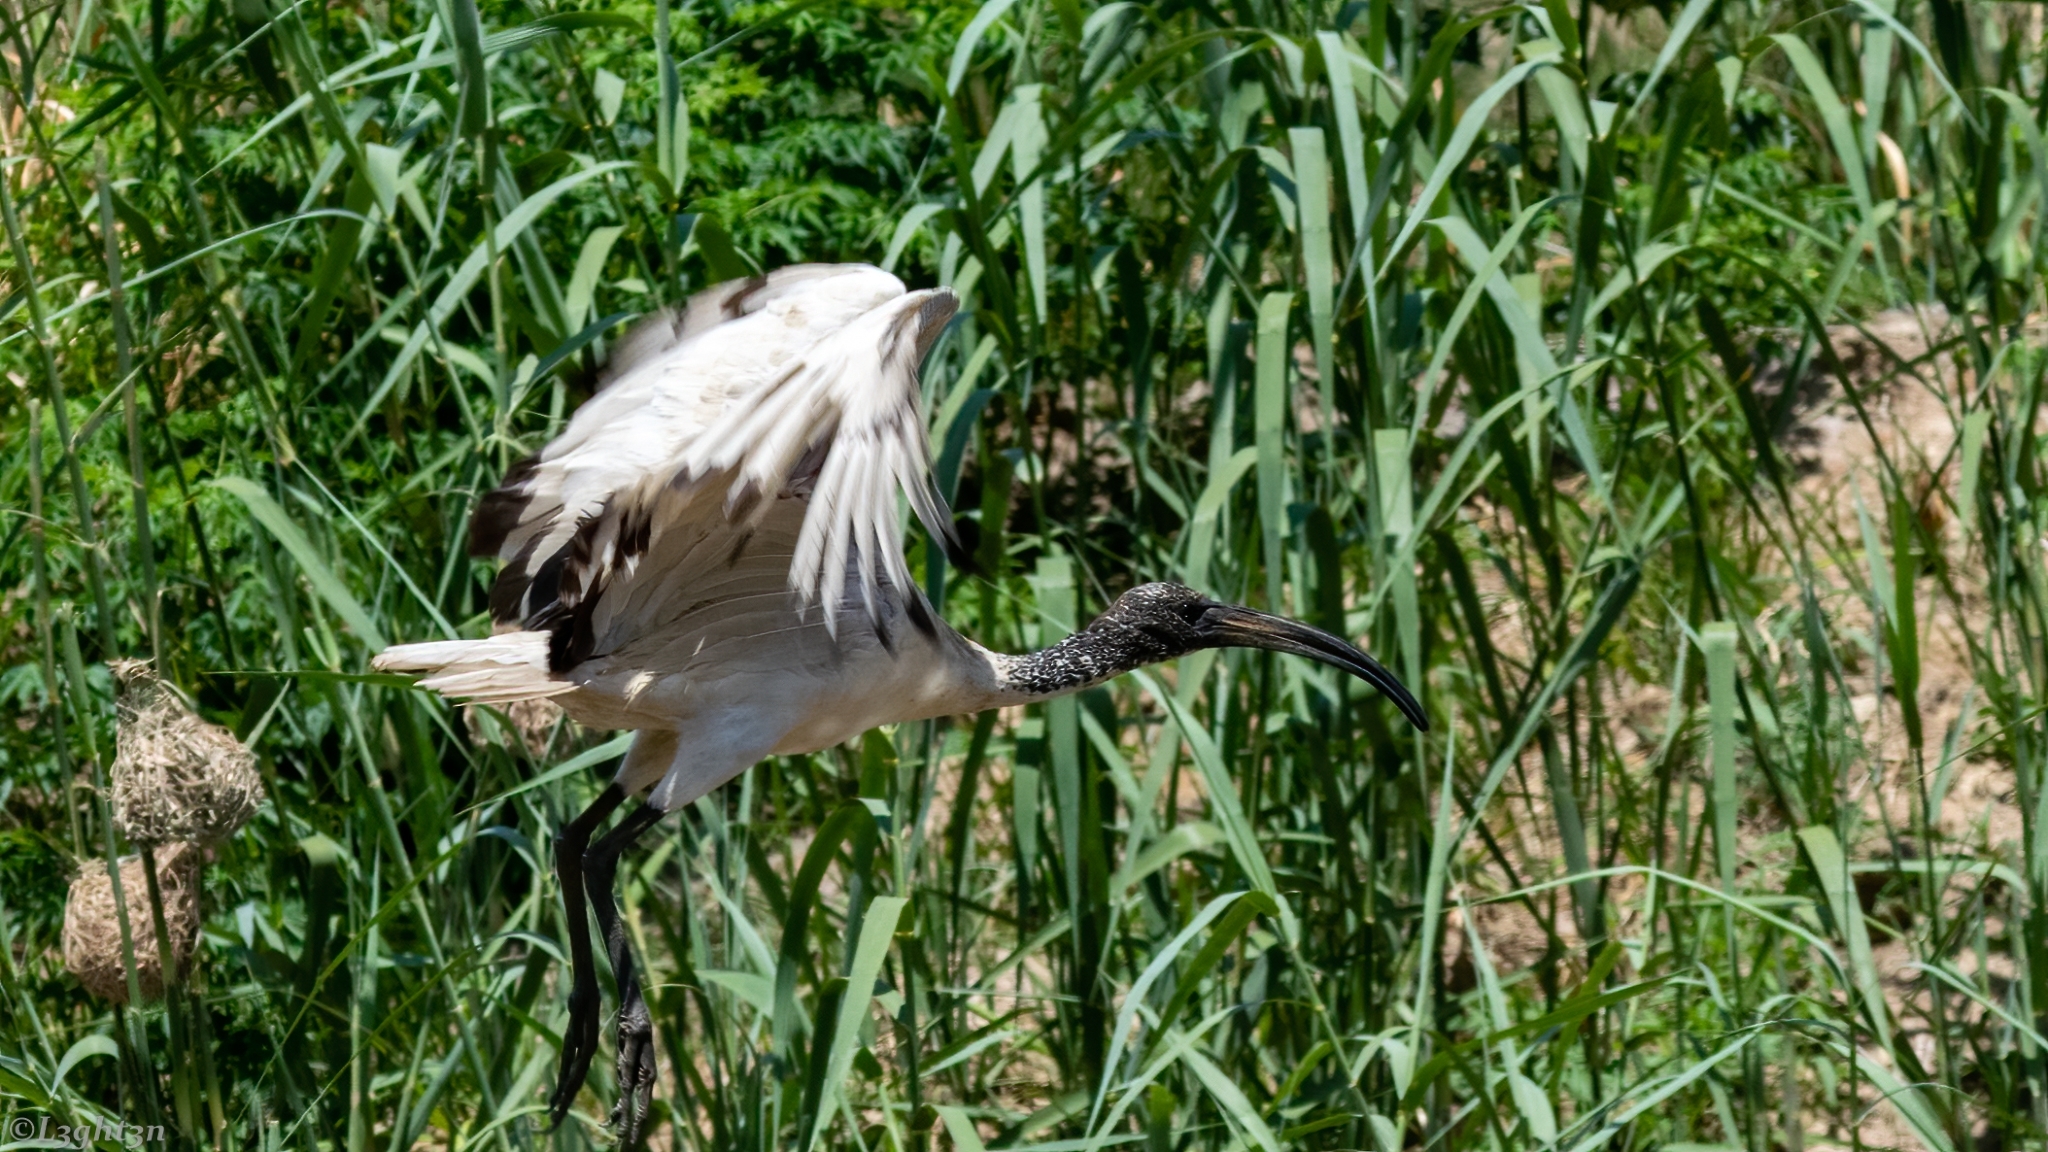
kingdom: Animalia
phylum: Chordata
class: Aves
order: Pelecaniformes
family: Threskiornithidae
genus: Threskiornis
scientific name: Threskiornis aethiopicus
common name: Sacred ibis
